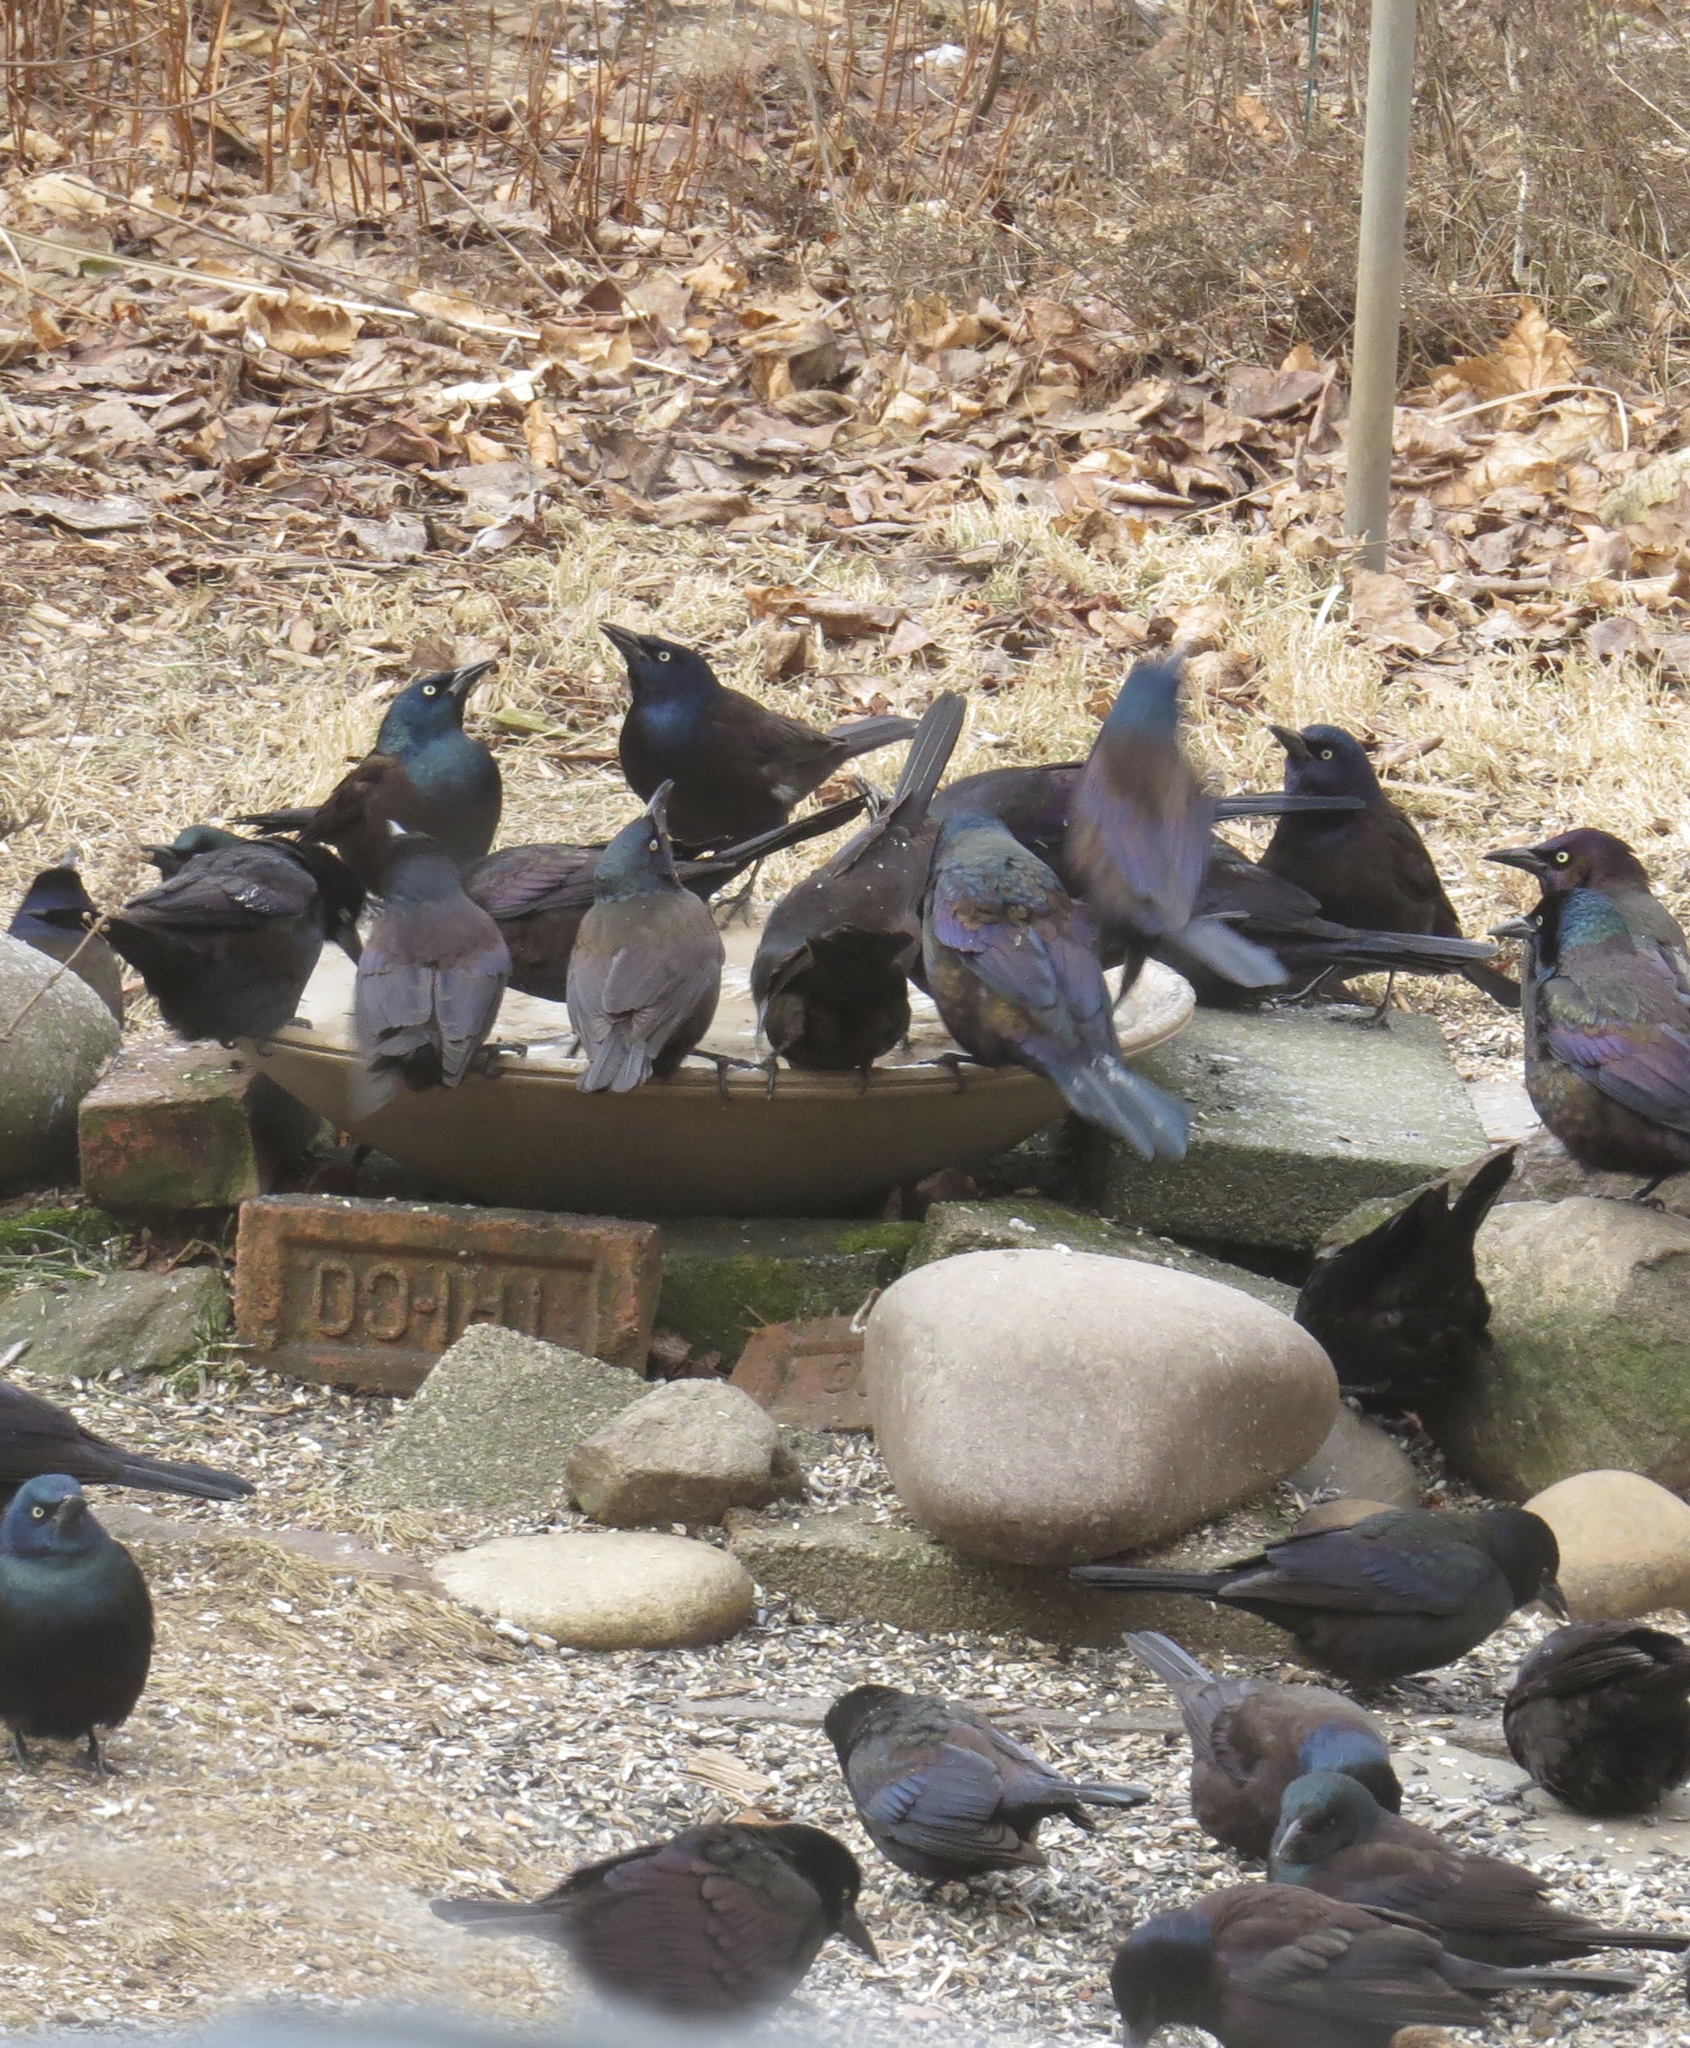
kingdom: Animalia
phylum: Chordata
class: Aves
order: Passeriformes
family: Icteridae
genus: Quiscalus
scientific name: Quiscalus quiscula
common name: Common grackle
